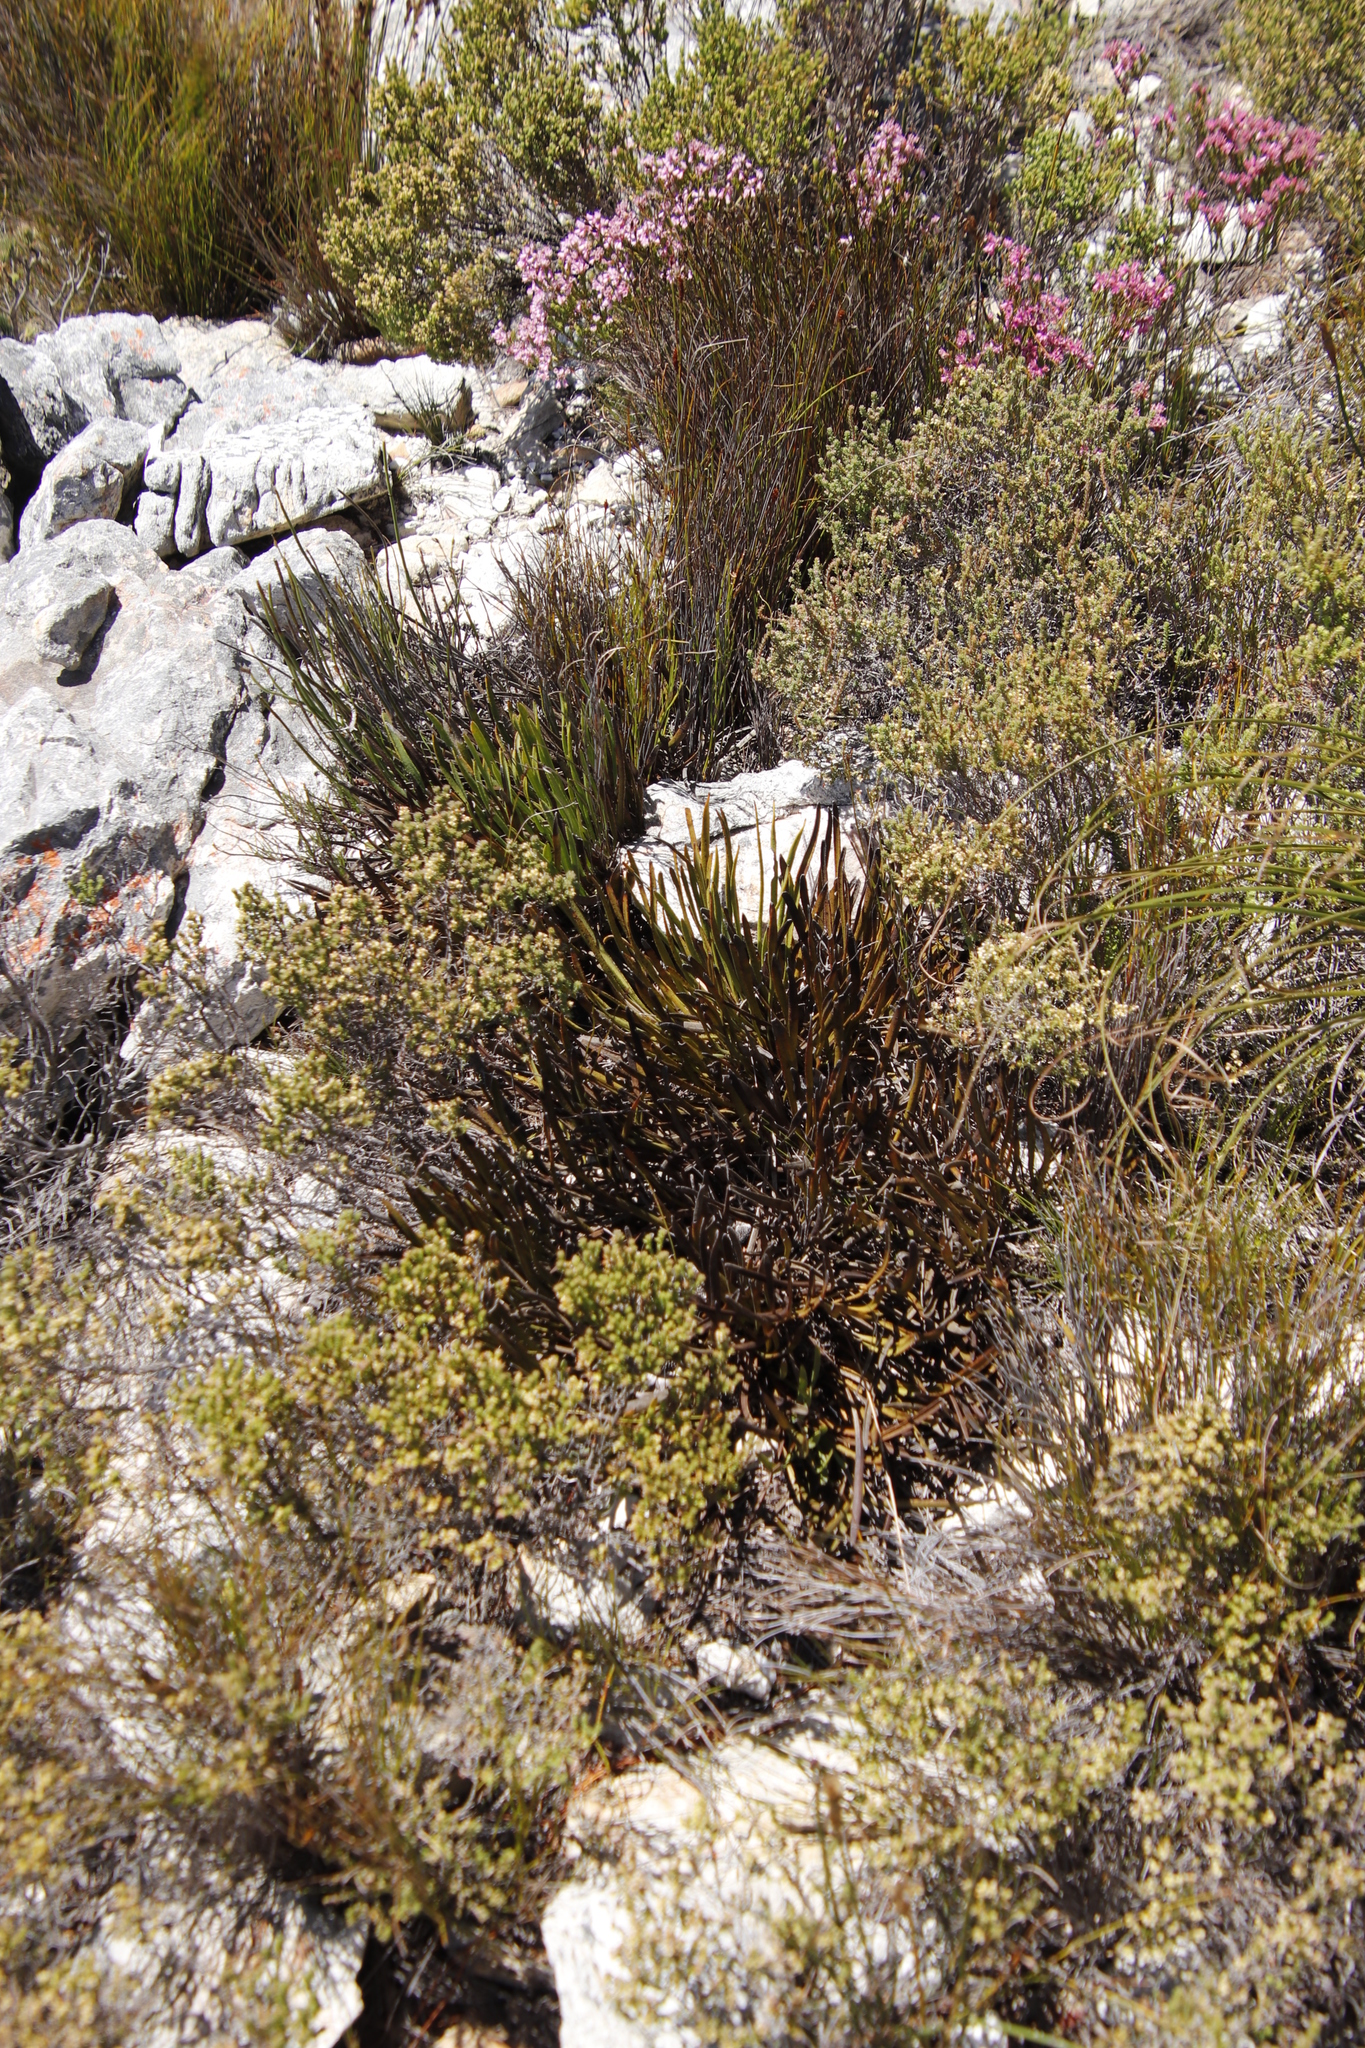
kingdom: Plantae
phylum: Tracheophyta
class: Magnoliopsida
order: Proteales
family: Proteaceae
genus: Protea
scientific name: Protea scabra
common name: Sandpaper-leaf sugarbush
